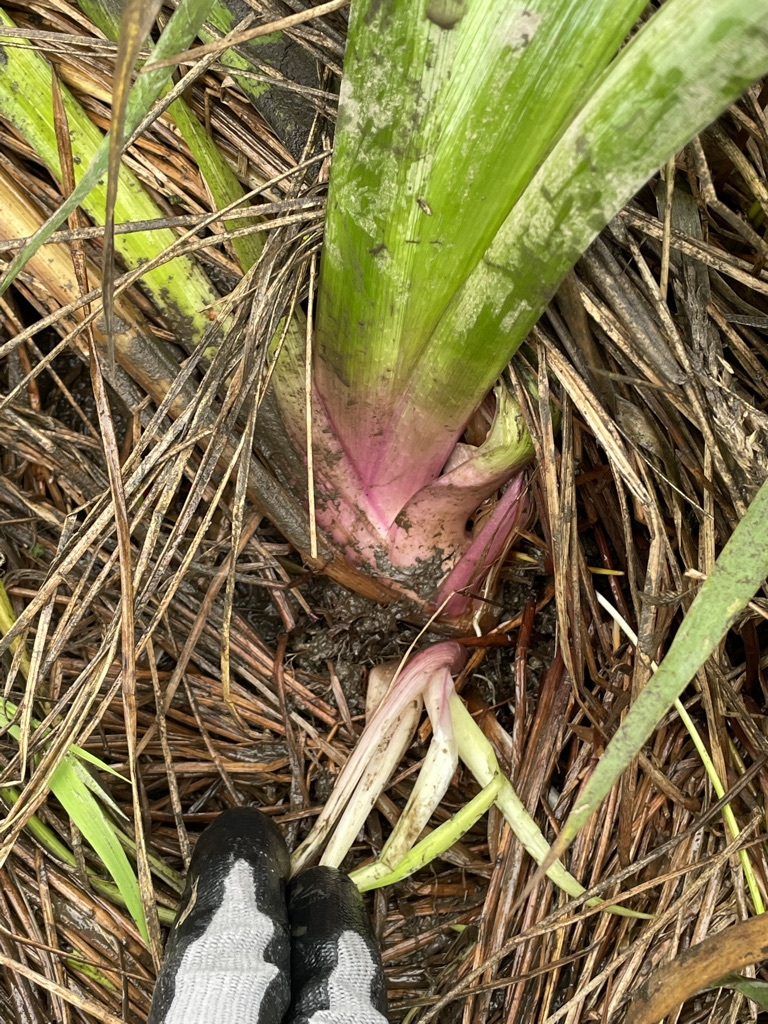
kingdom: Plantae
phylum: Tracheophyta
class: Liliopsida
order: Asparagales
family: Iridaceae
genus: Iris
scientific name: Iris pseudacorus
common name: Yellow flag
